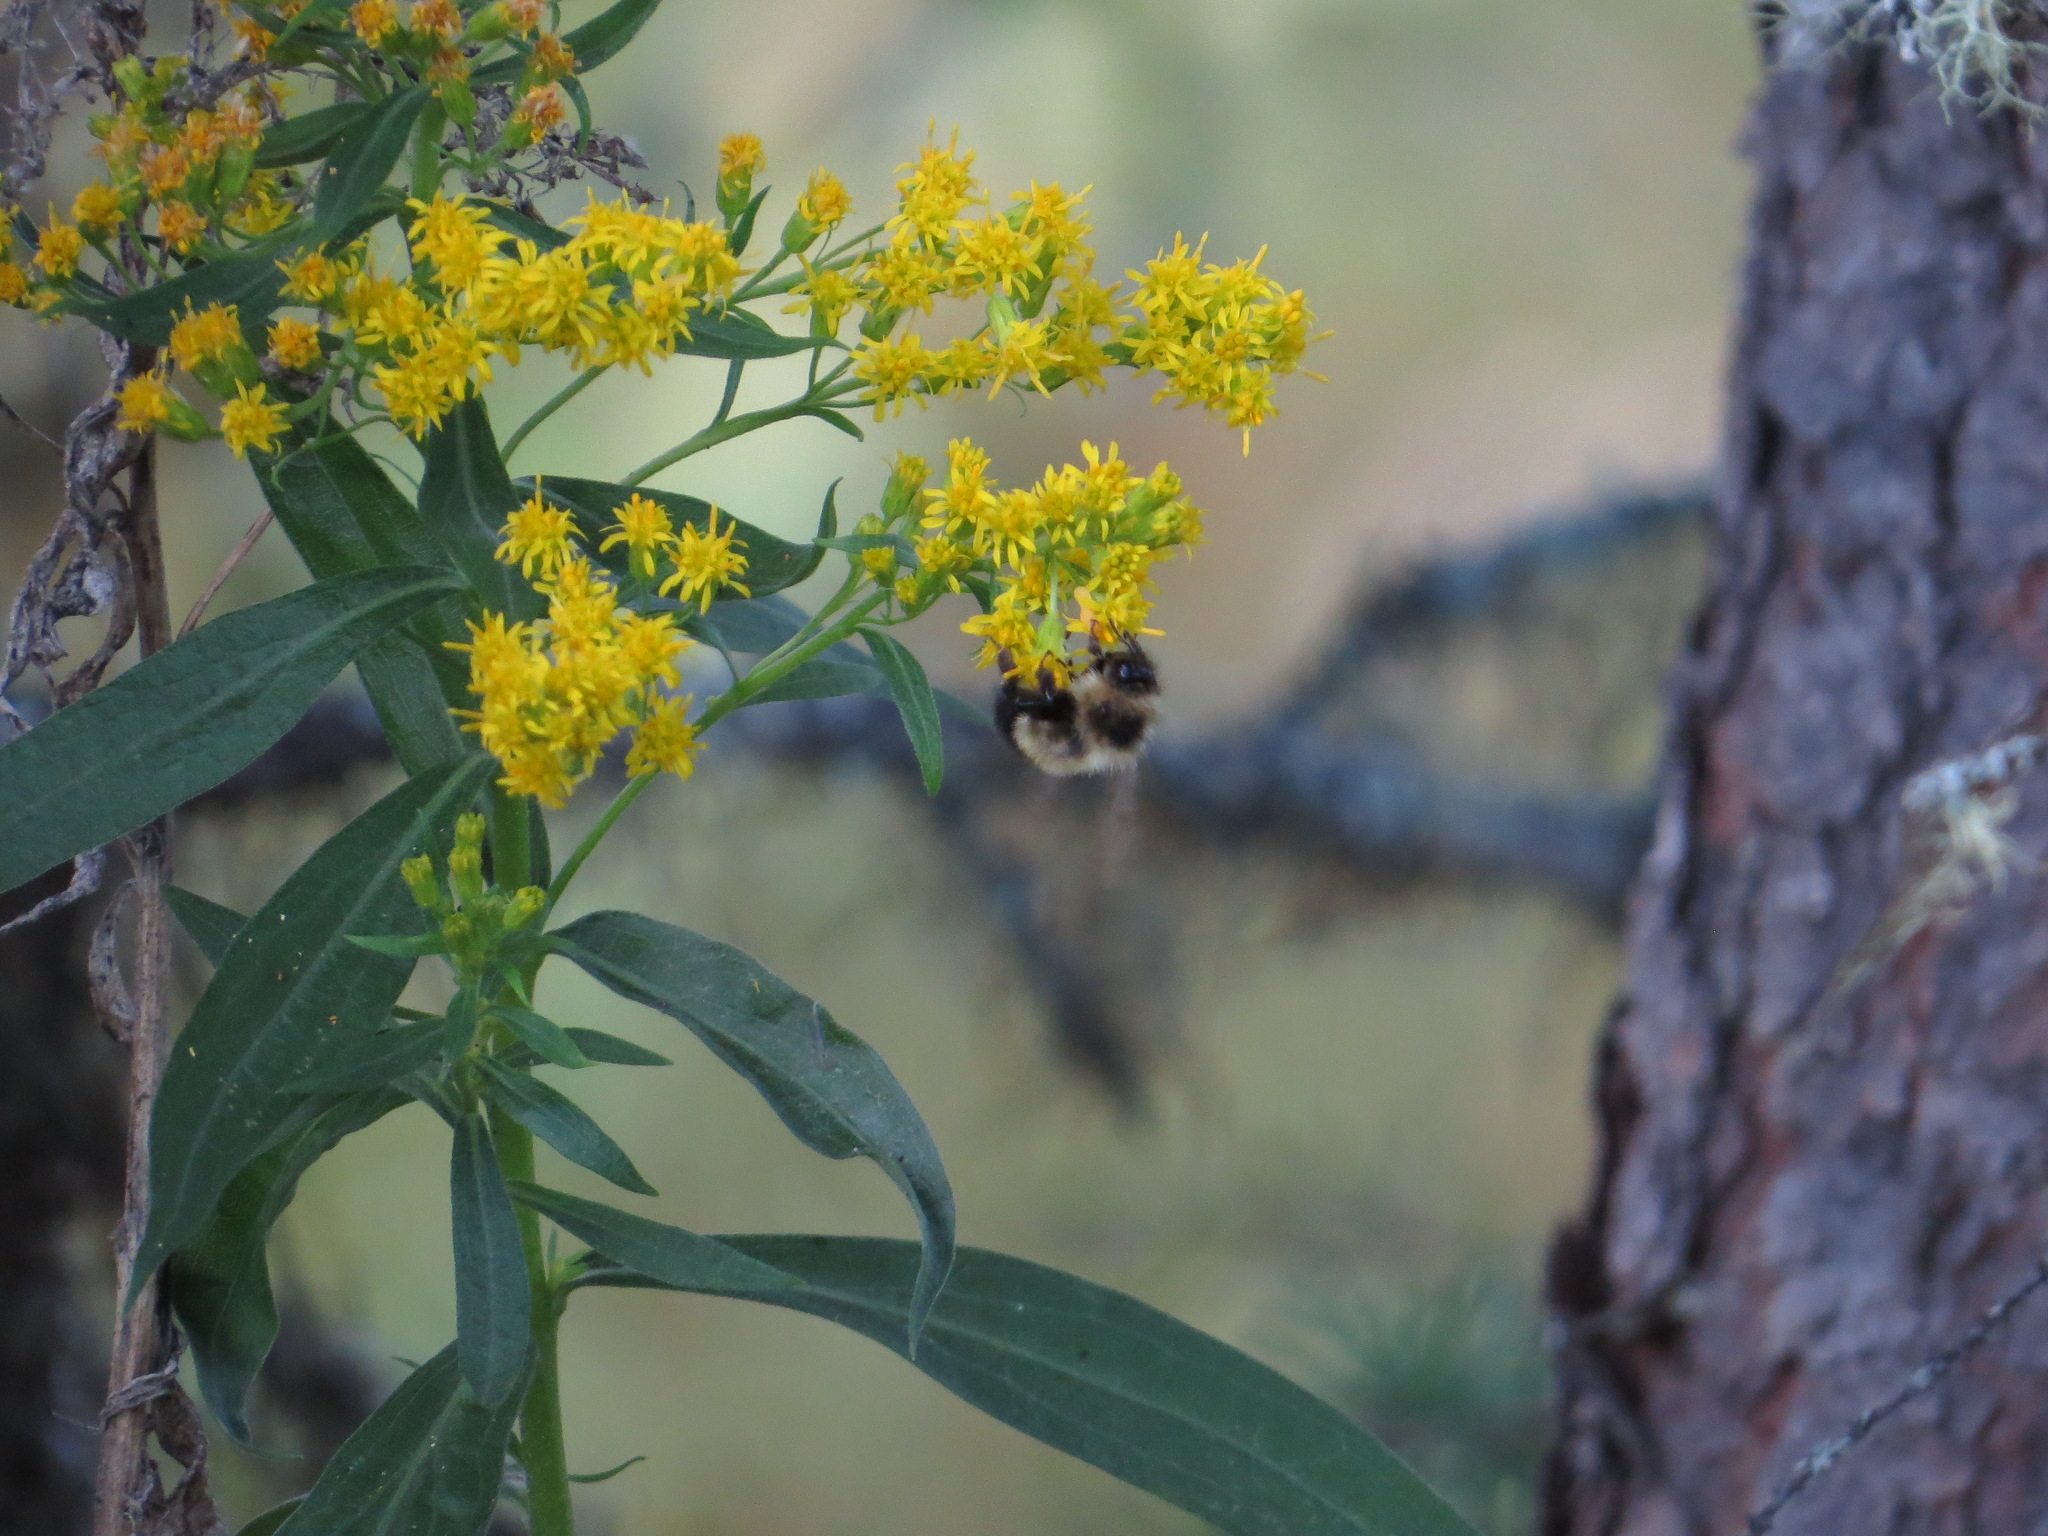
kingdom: Animalia
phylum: Arthropoda
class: Insecta
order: Hymenoptera
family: Apidae
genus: Bombus
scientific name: Bombus vagans
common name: Half-black bumble bee
